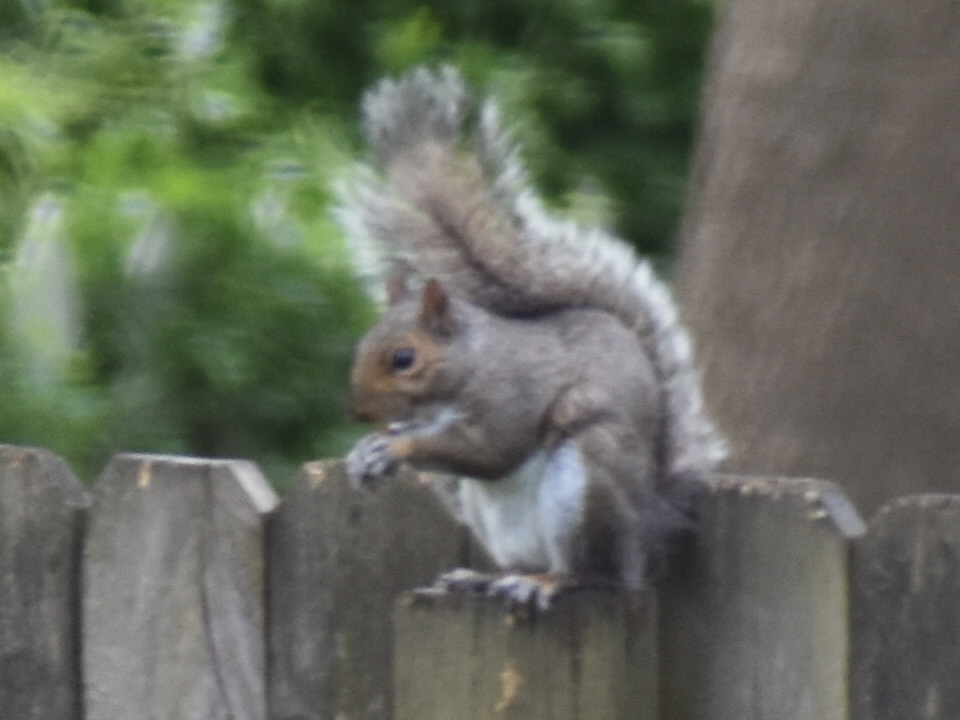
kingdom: Animalia
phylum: Chordata
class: Mammalia
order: Rodentia
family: Sciuridae
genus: Sciurus
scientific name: Sciurus carolinensis
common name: Eastern gray squirrel
